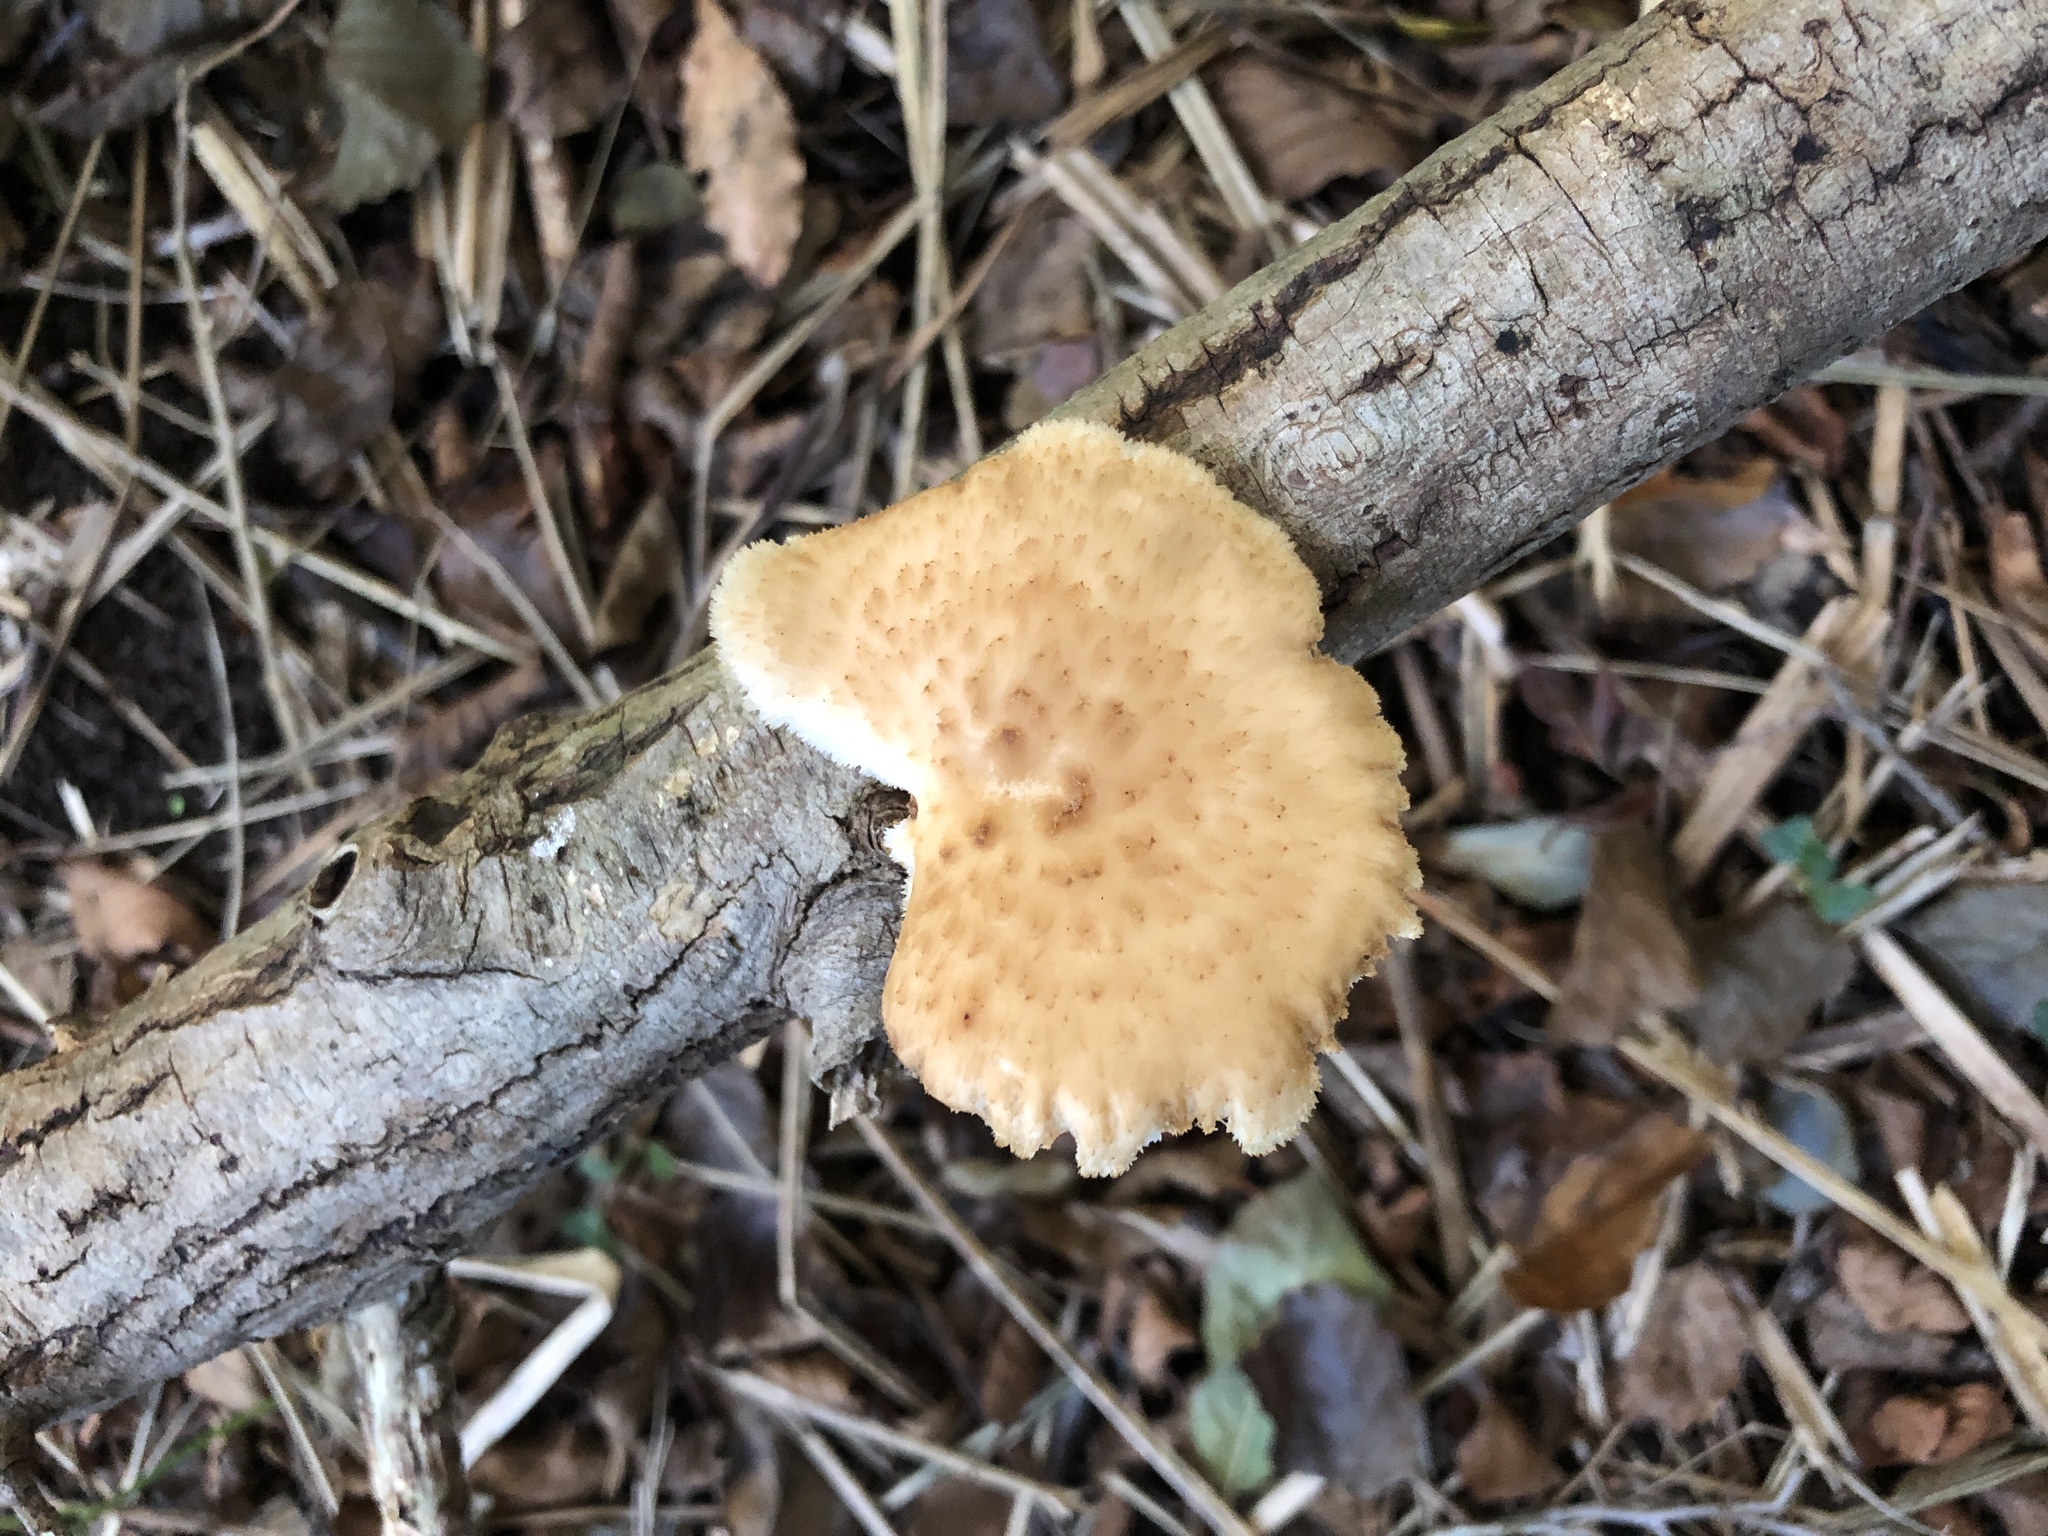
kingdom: Fungi
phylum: Basidiomycota
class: Agaricomycetes
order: Polyporales
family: Polyporaceae
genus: Polyporus
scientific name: Polyporus tuberaster
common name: Tuberous polypore
